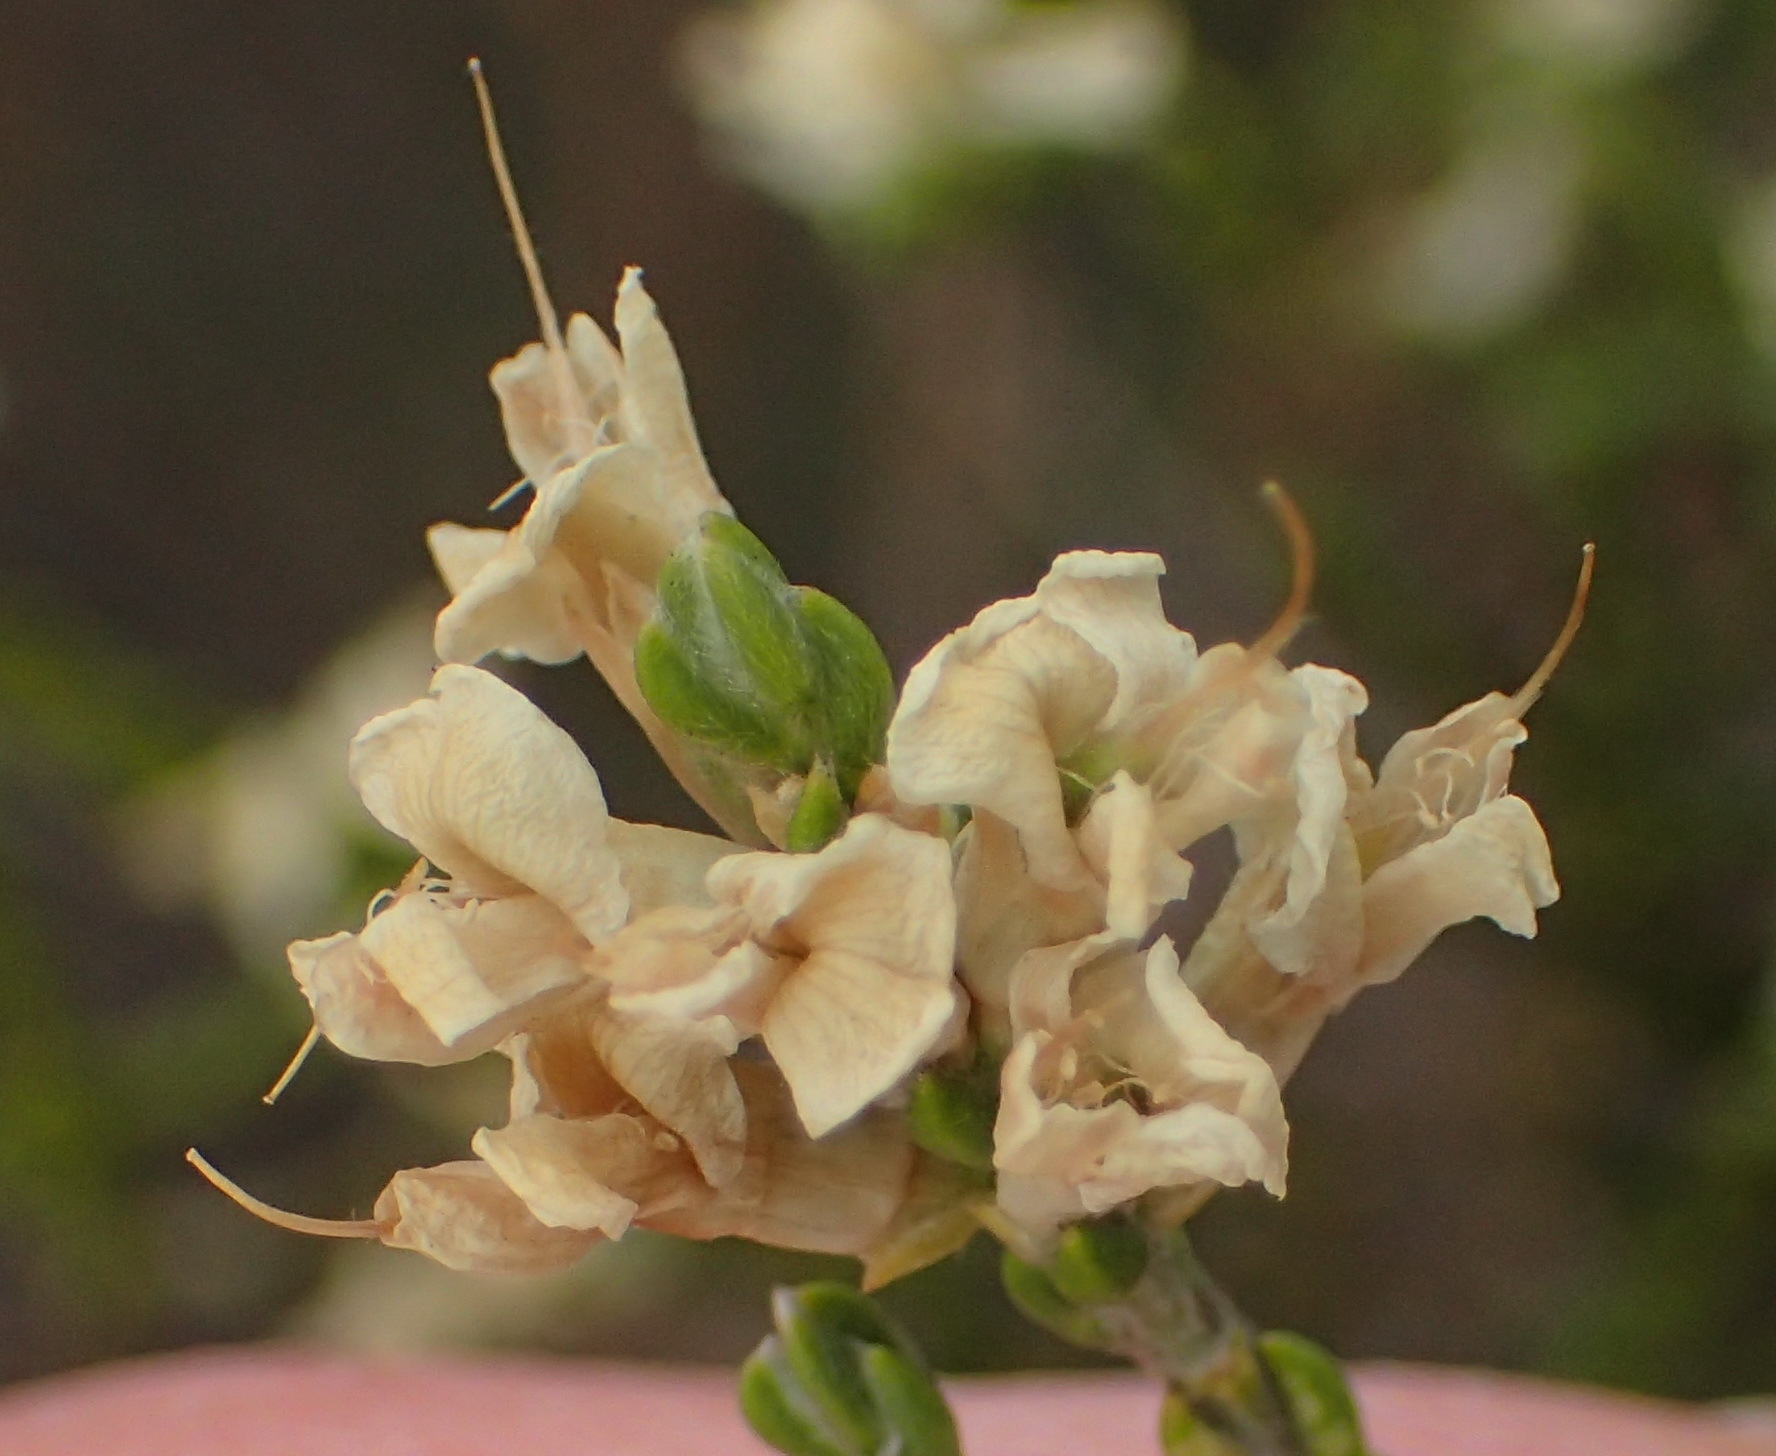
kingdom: Plantae
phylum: Tracheophyta
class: Magnoliopsida
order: Fabales
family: Fabaceae
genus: Amphithalea
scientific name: Amphithalea vlokii
